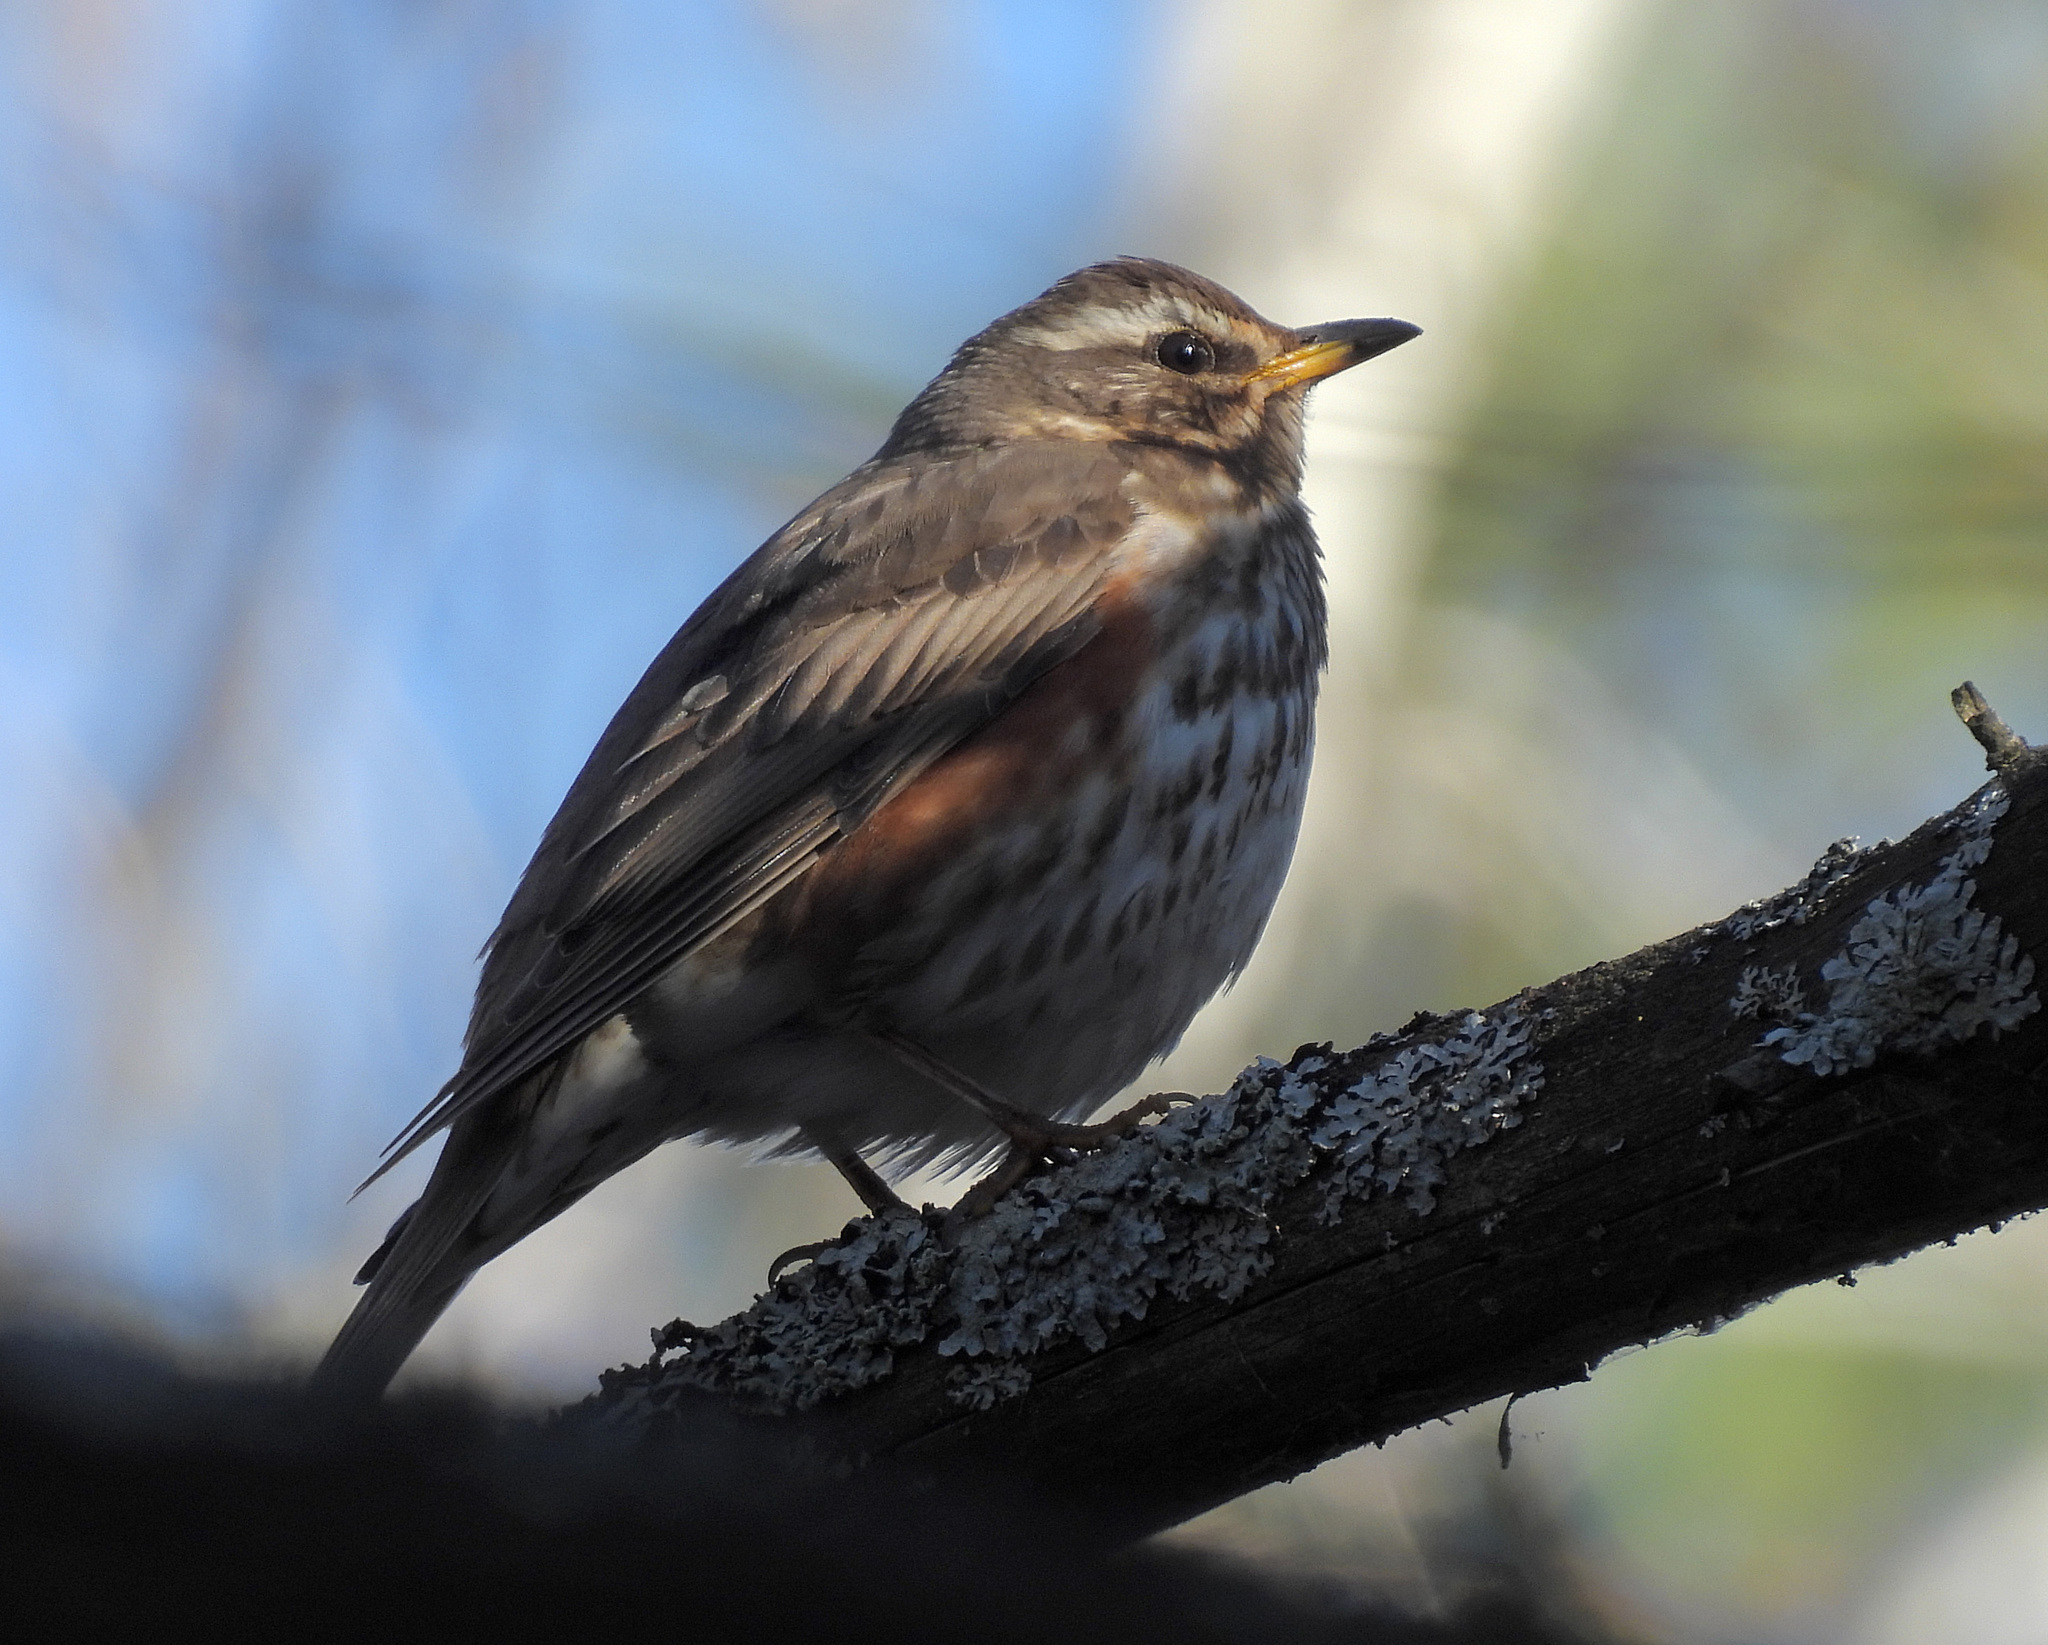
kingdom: Animalia
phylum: Chordata
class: Aves
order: Passeriformes
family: Turdidae
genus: Turdus
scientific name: Turdus iliacus
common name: Redwing
